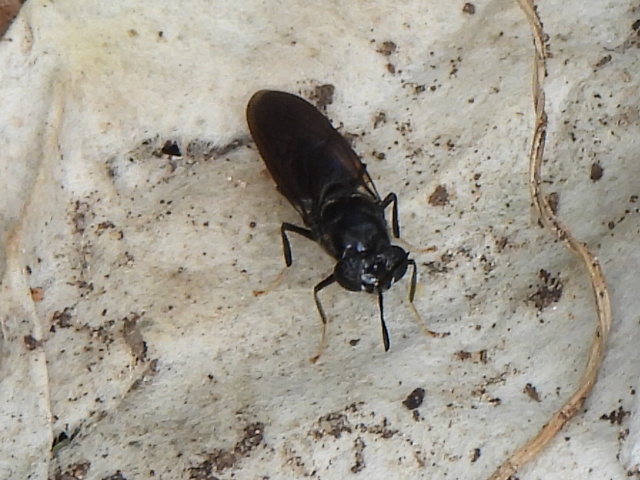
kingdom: Animalia
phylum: Arthropoda
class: Insecta
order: Diptera
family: Stratiomyidae
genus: Hermetia
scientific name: Hermetia illucens
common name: Black soldier fly
